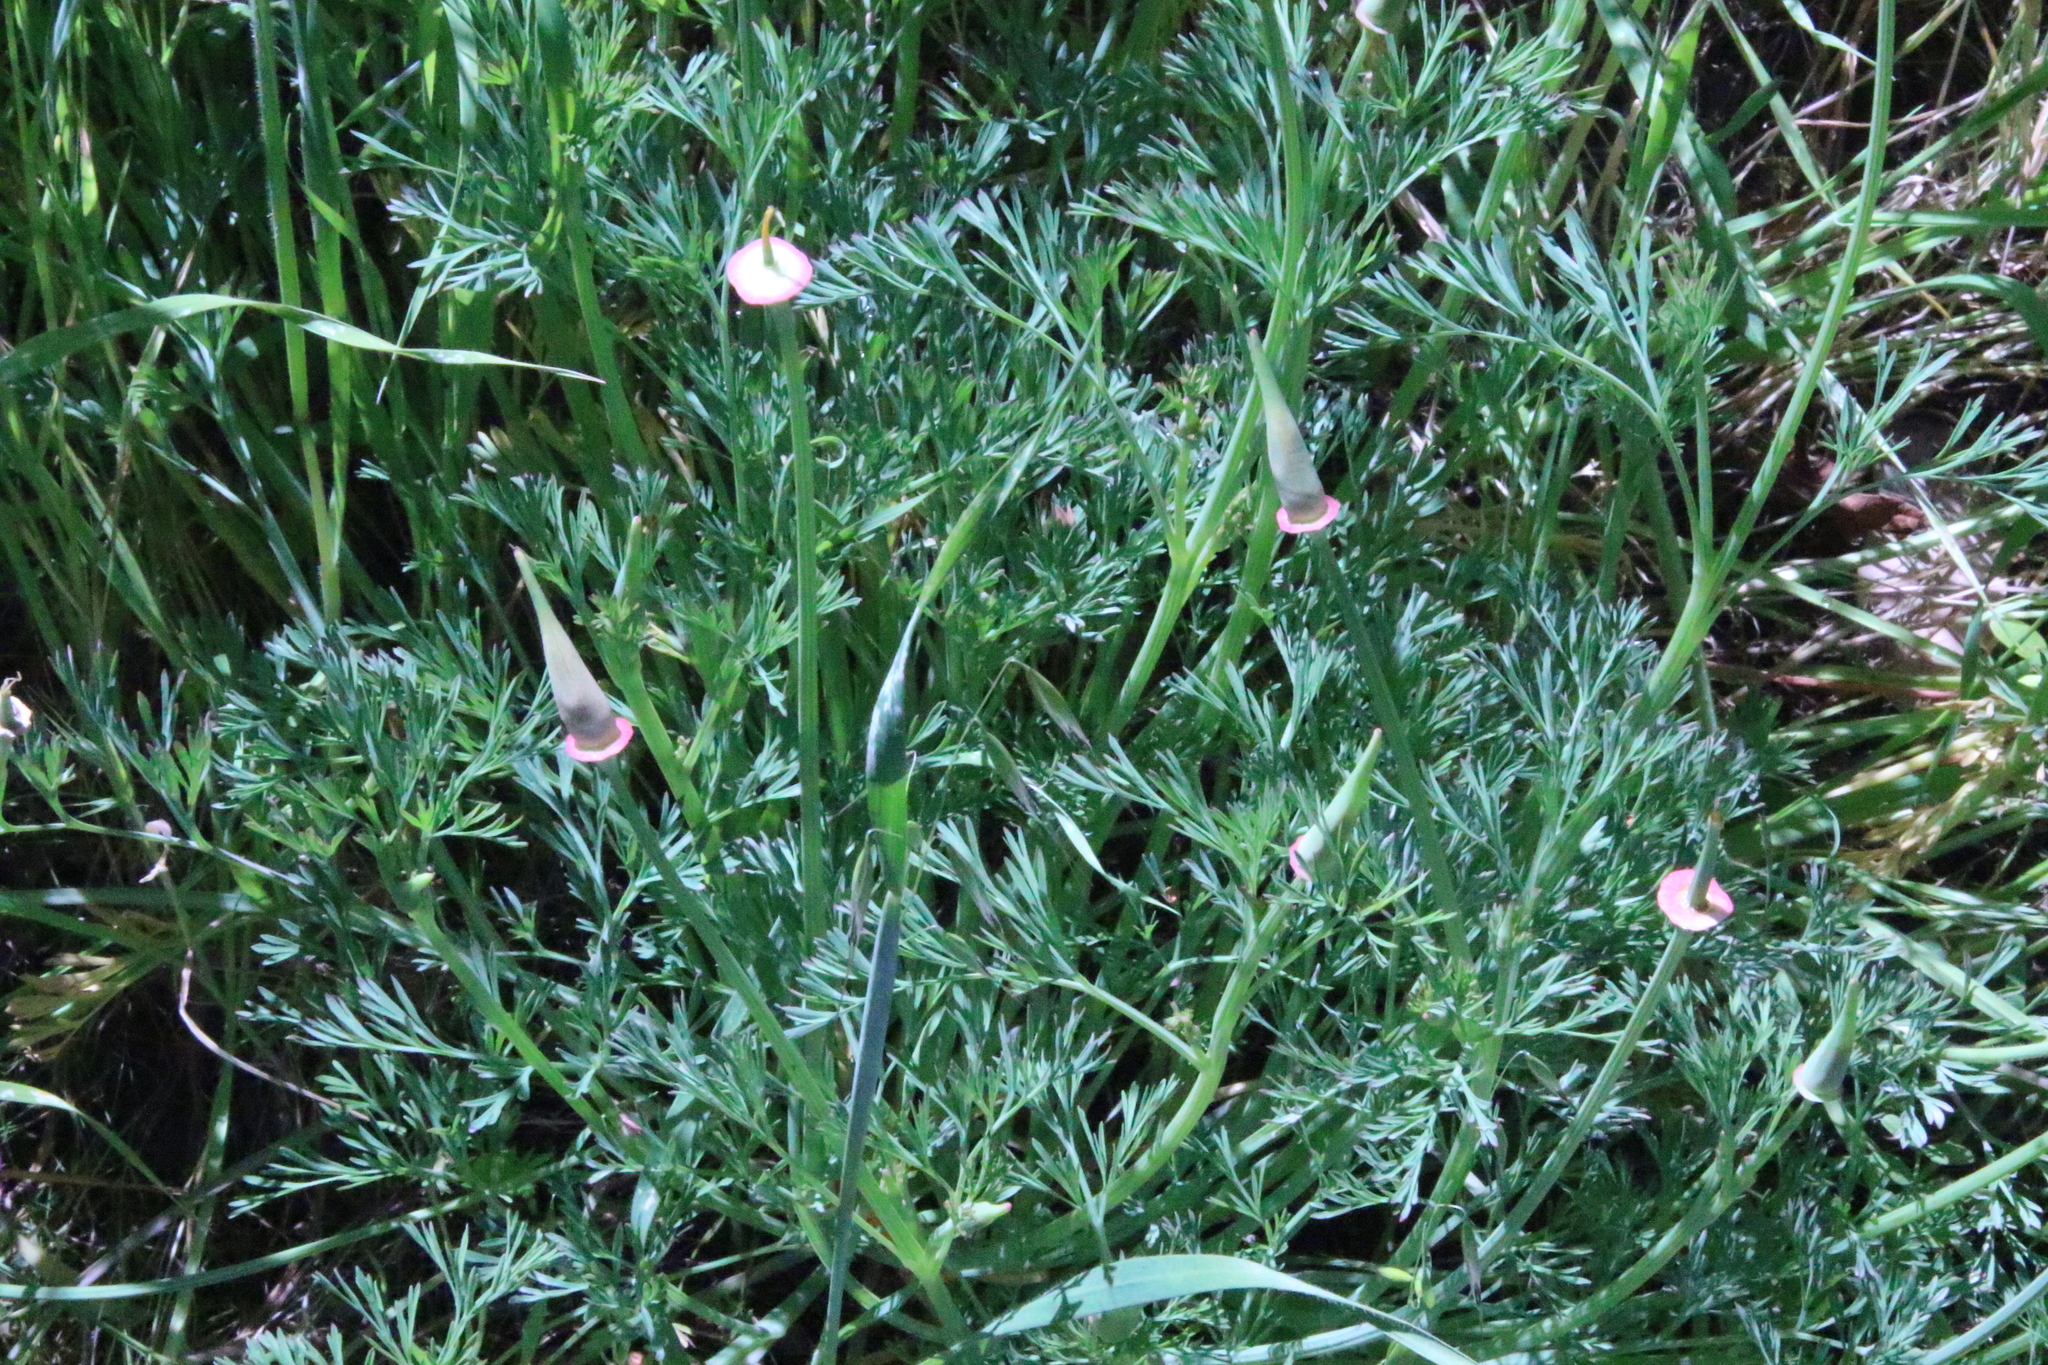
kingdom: Plantae
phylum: Tracheophyta
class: Magnoliopsida
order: Ranunculales
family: Papaveraceae
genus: Eschscholzia
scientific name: Eschscholzia californica
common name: California poppy
